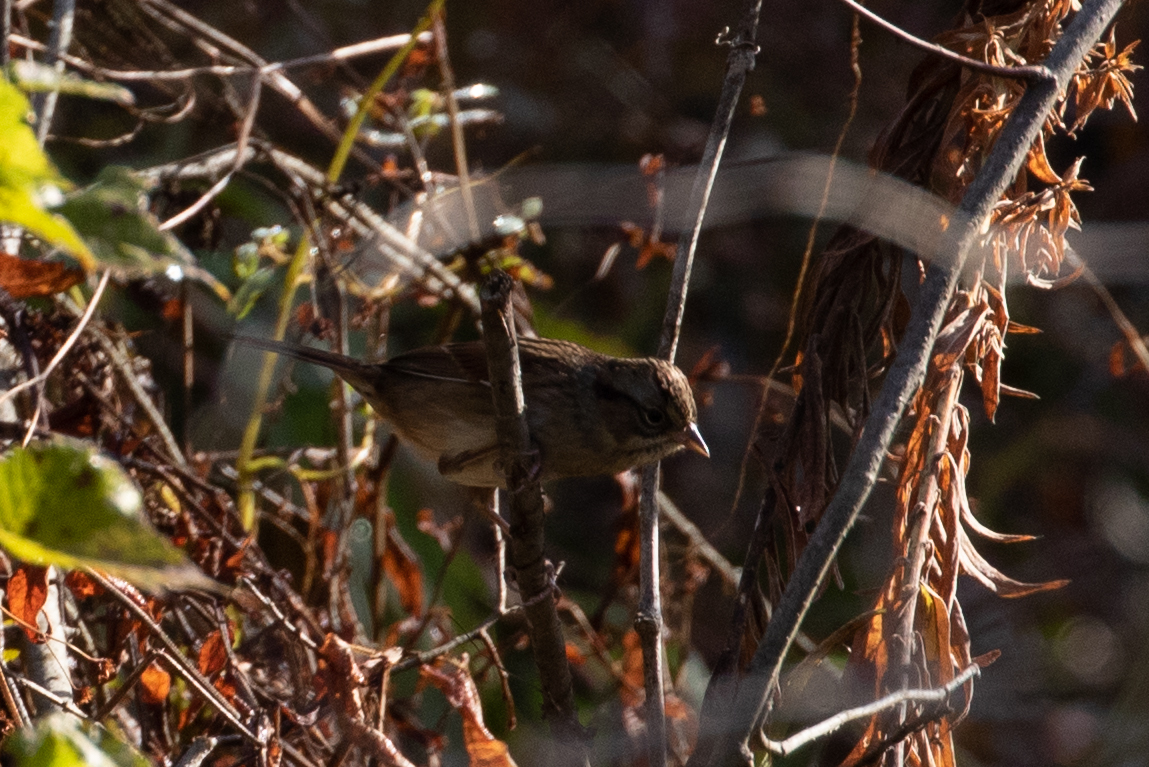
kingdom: Animalia
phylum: Chordata
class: Aves
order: Passeriformes
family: Passerellidae
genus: Melospiza
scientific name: Melospiza georgiana
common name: Swamp sparrow
